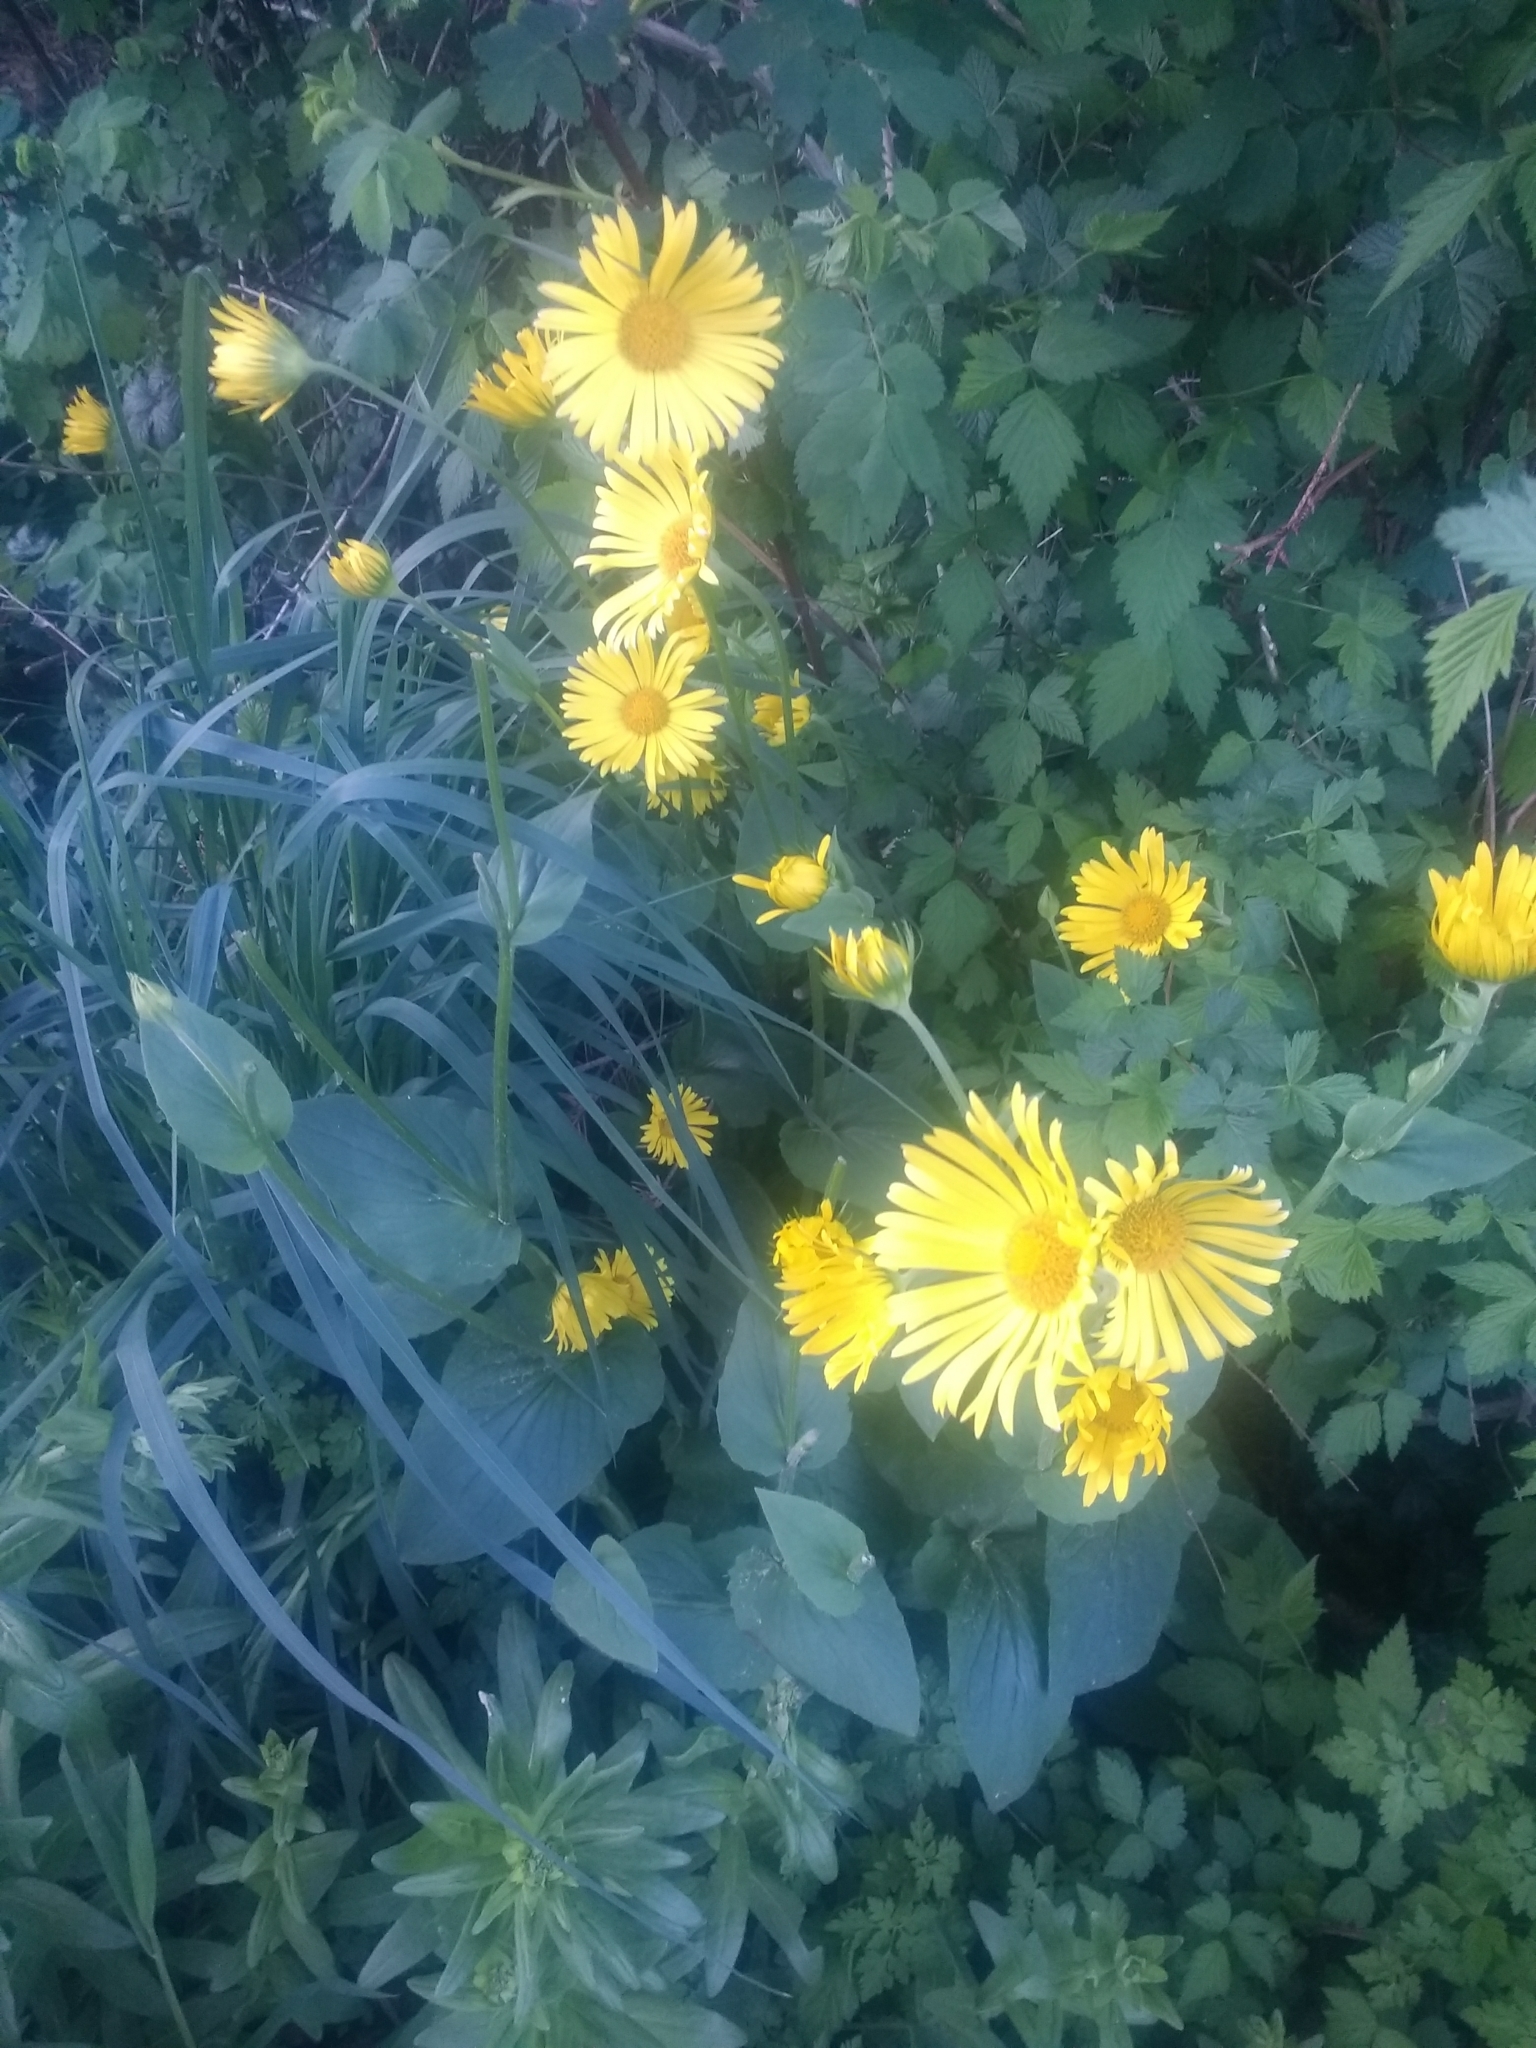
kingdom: Plantae
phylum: Tracheophyta
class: Magnoliopsida
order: Asterales
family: Asteraceae
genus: Doronicum
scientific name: Doronicum pardalianches
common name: Leopard's-bane
